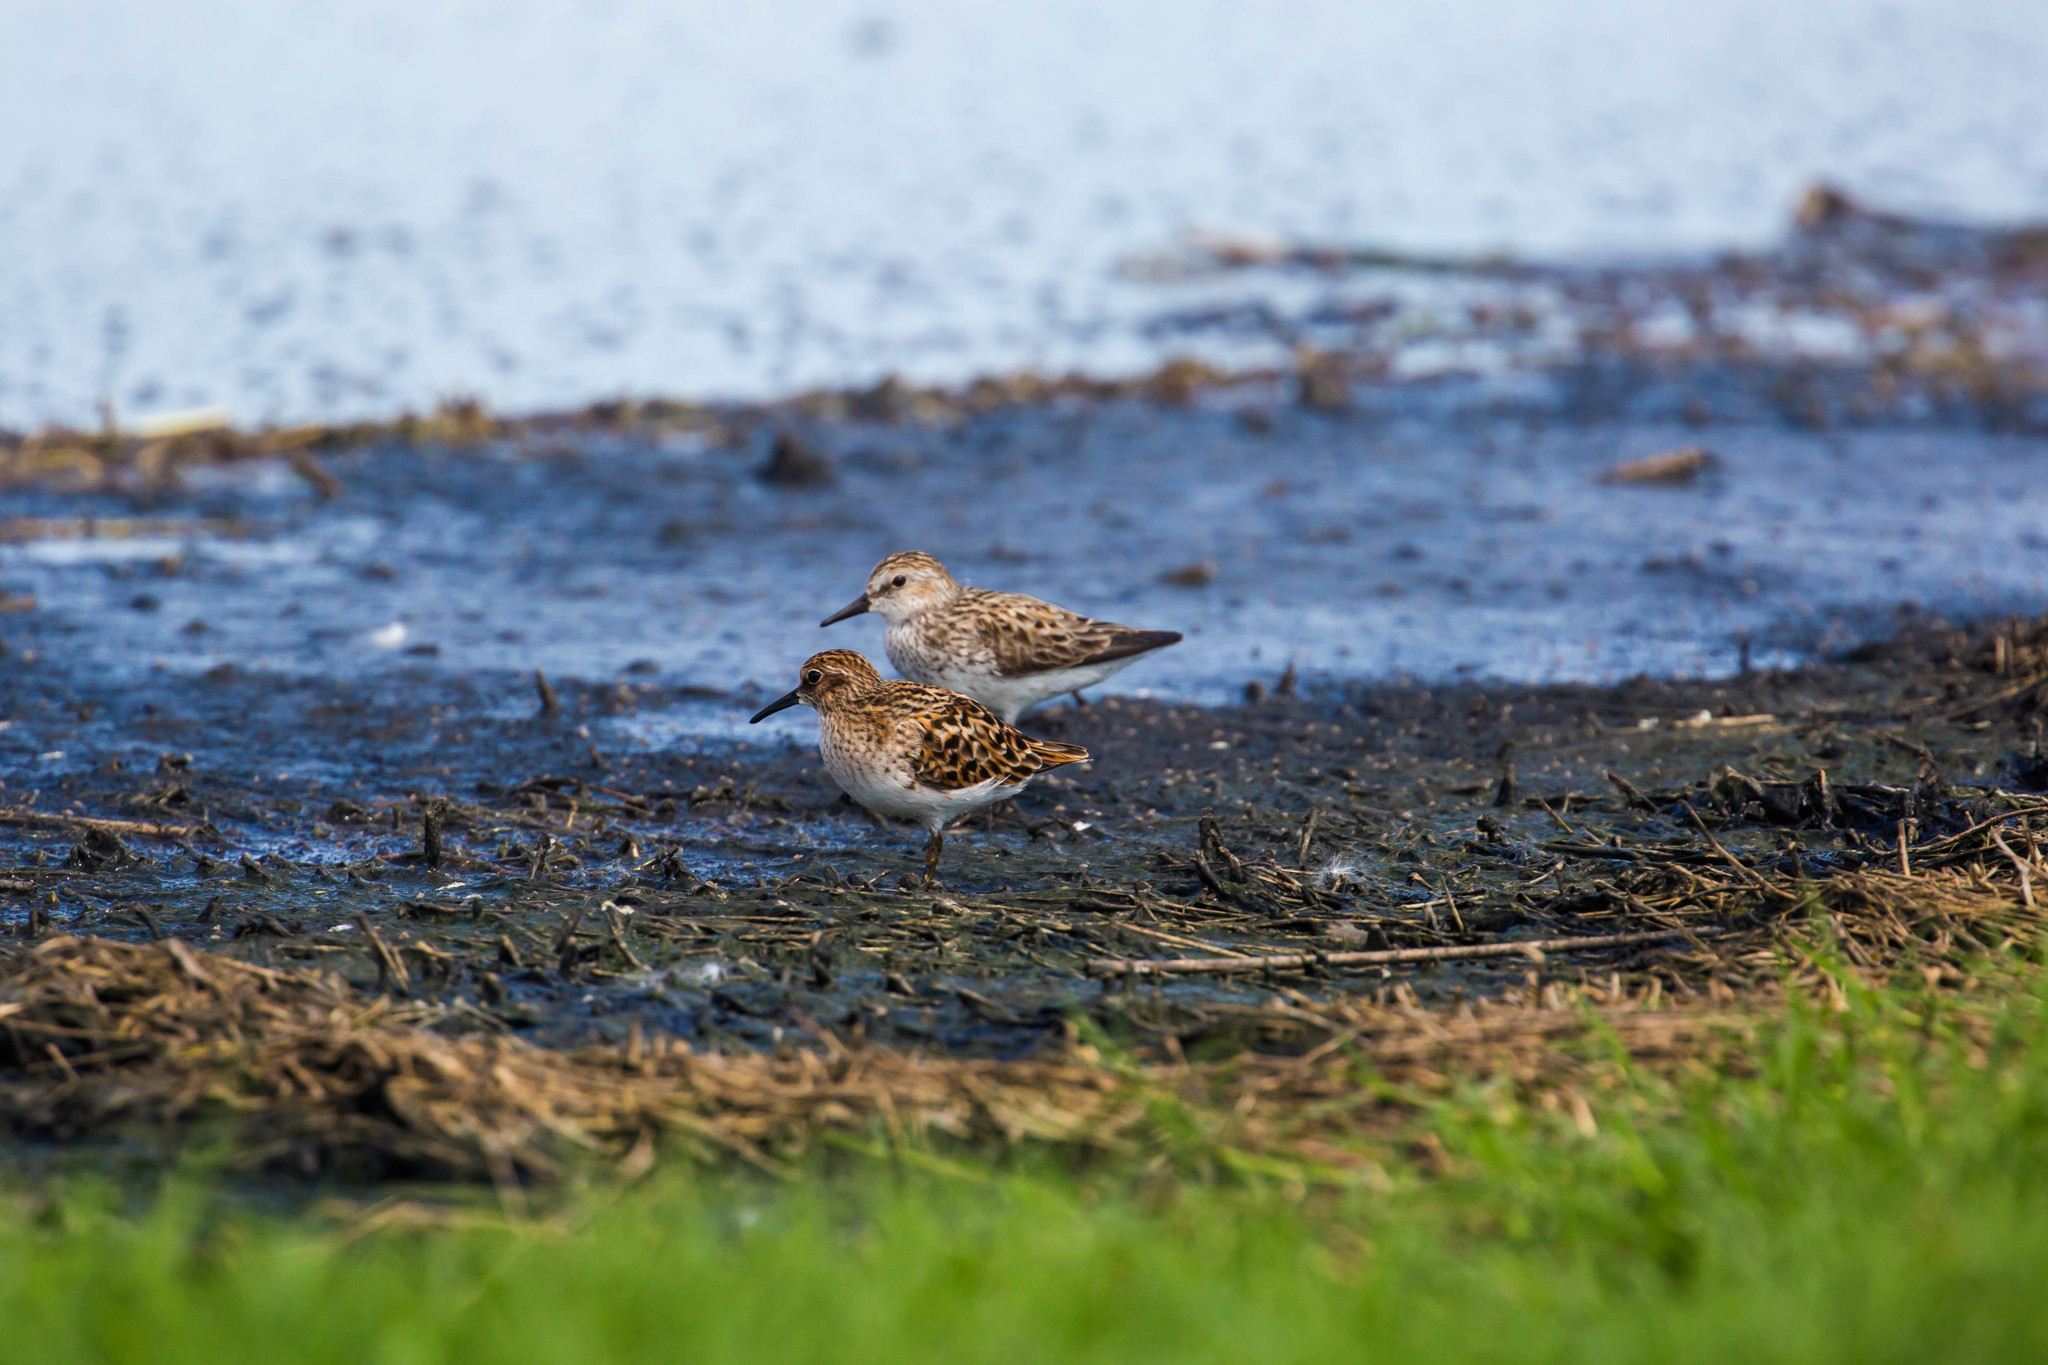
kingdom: Animalia
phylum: Chordata
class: Aves
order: Charadriiformes
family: Scolopacidae
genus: Calidris
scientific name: Calidris minutilla
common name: Least sandpiper
